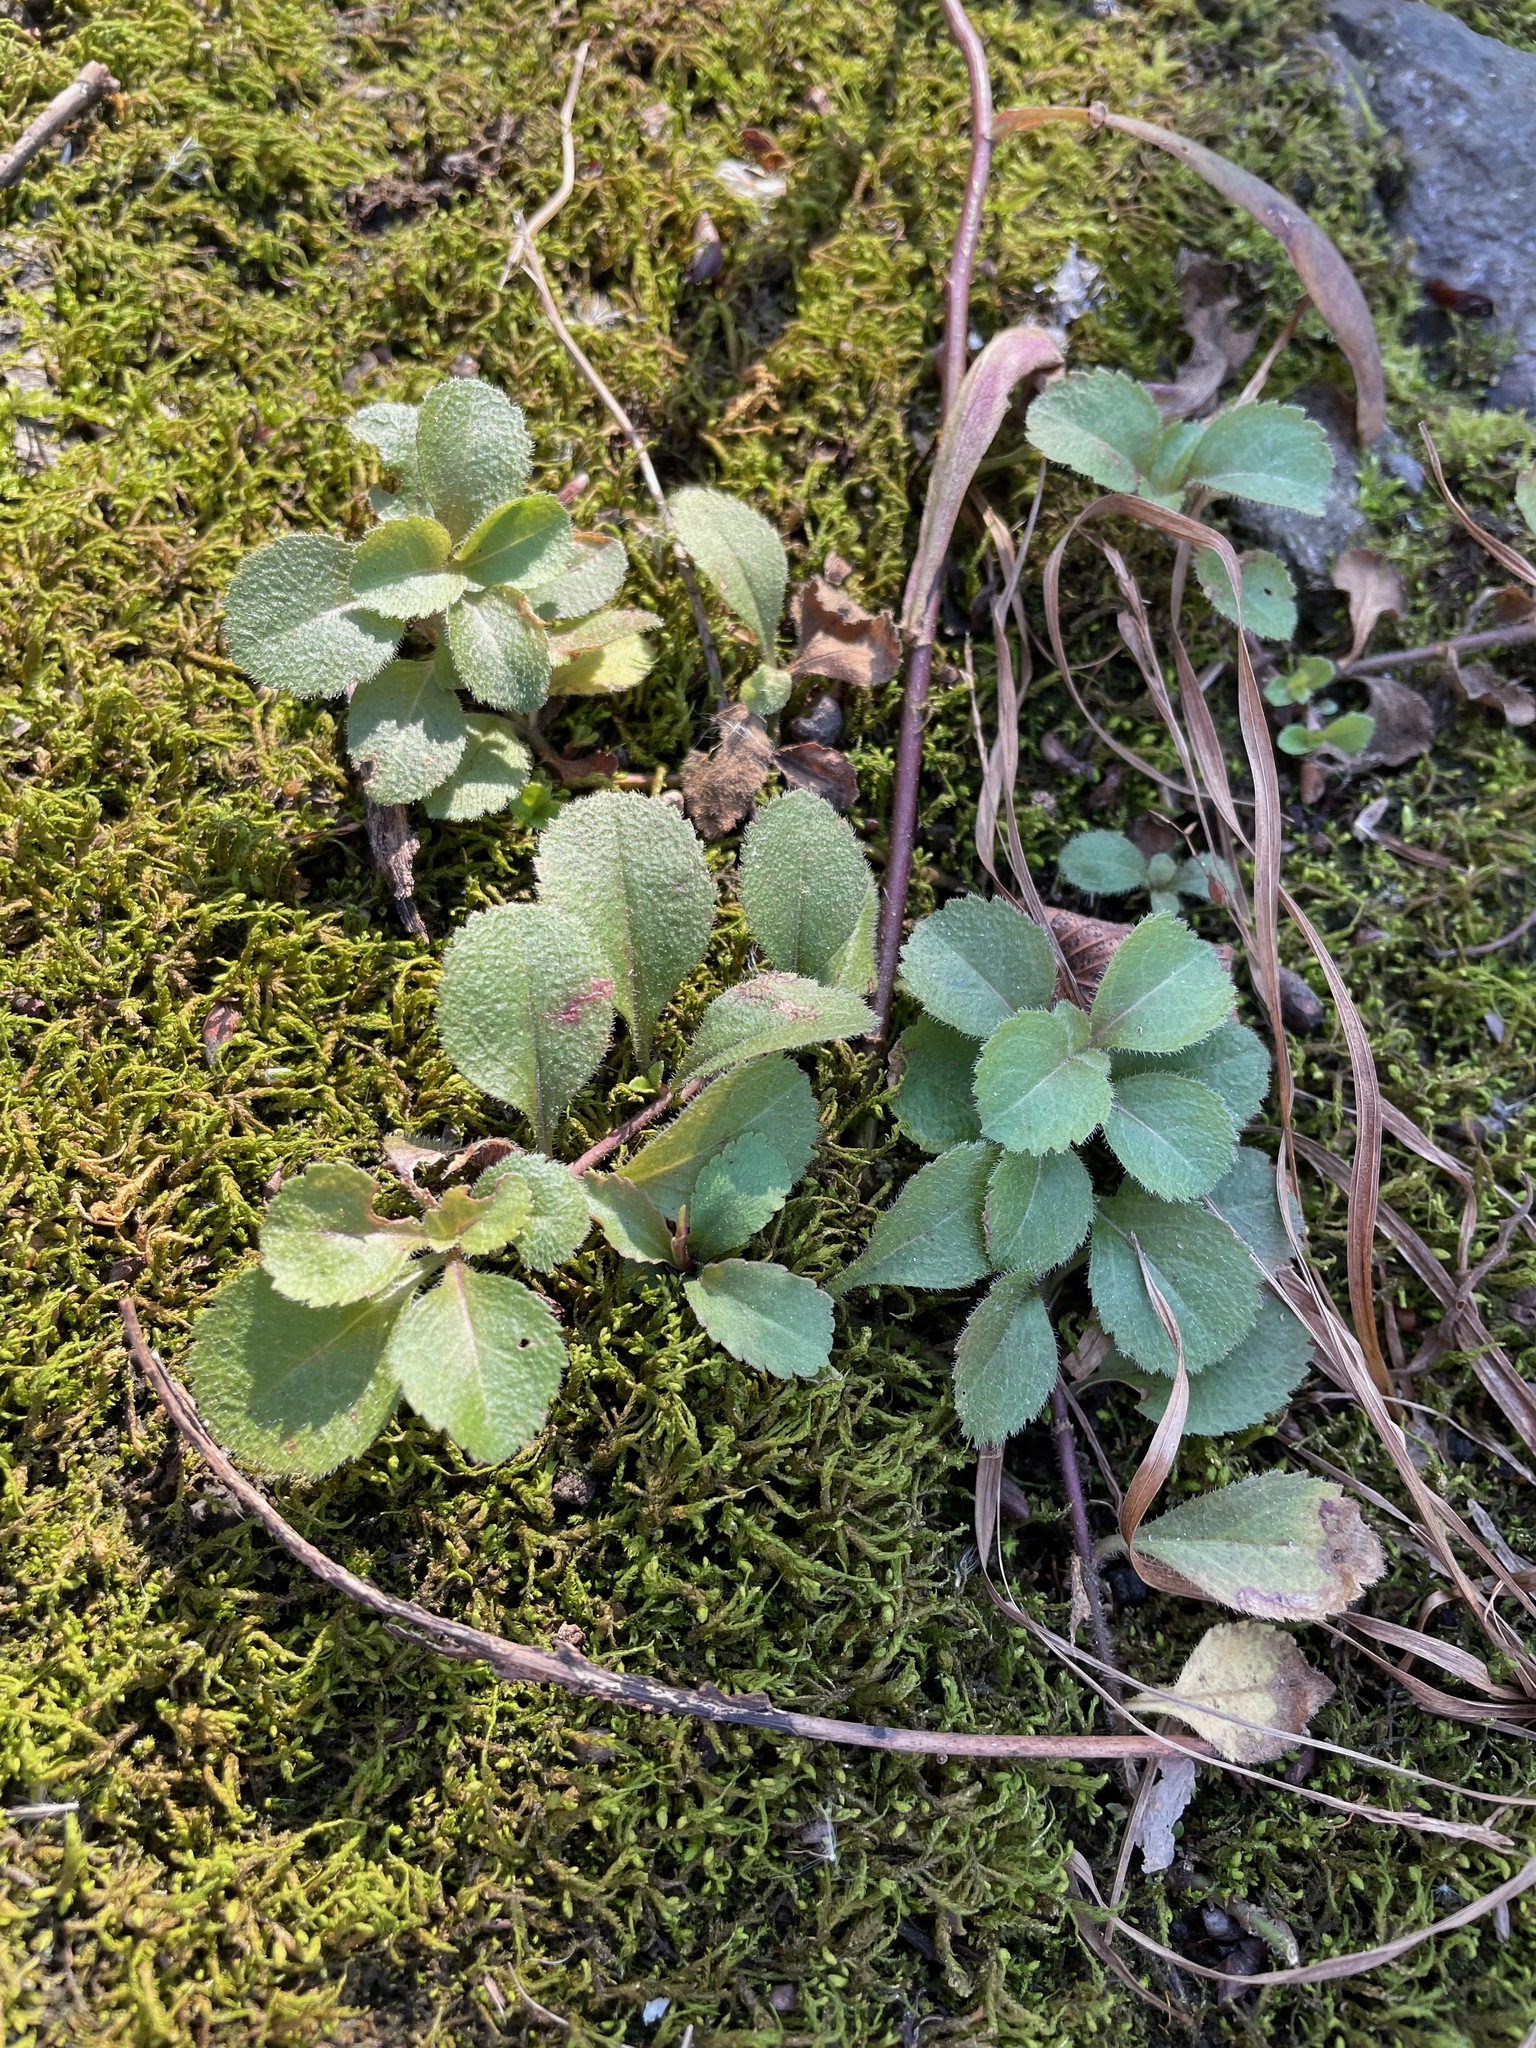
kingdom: Plantae
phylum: Tracheophyta
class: Magnoliopsida
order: Lamiales
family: Plantaginaceae
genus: Veronica
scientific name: Veronica officinalis
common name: Common speedwell
